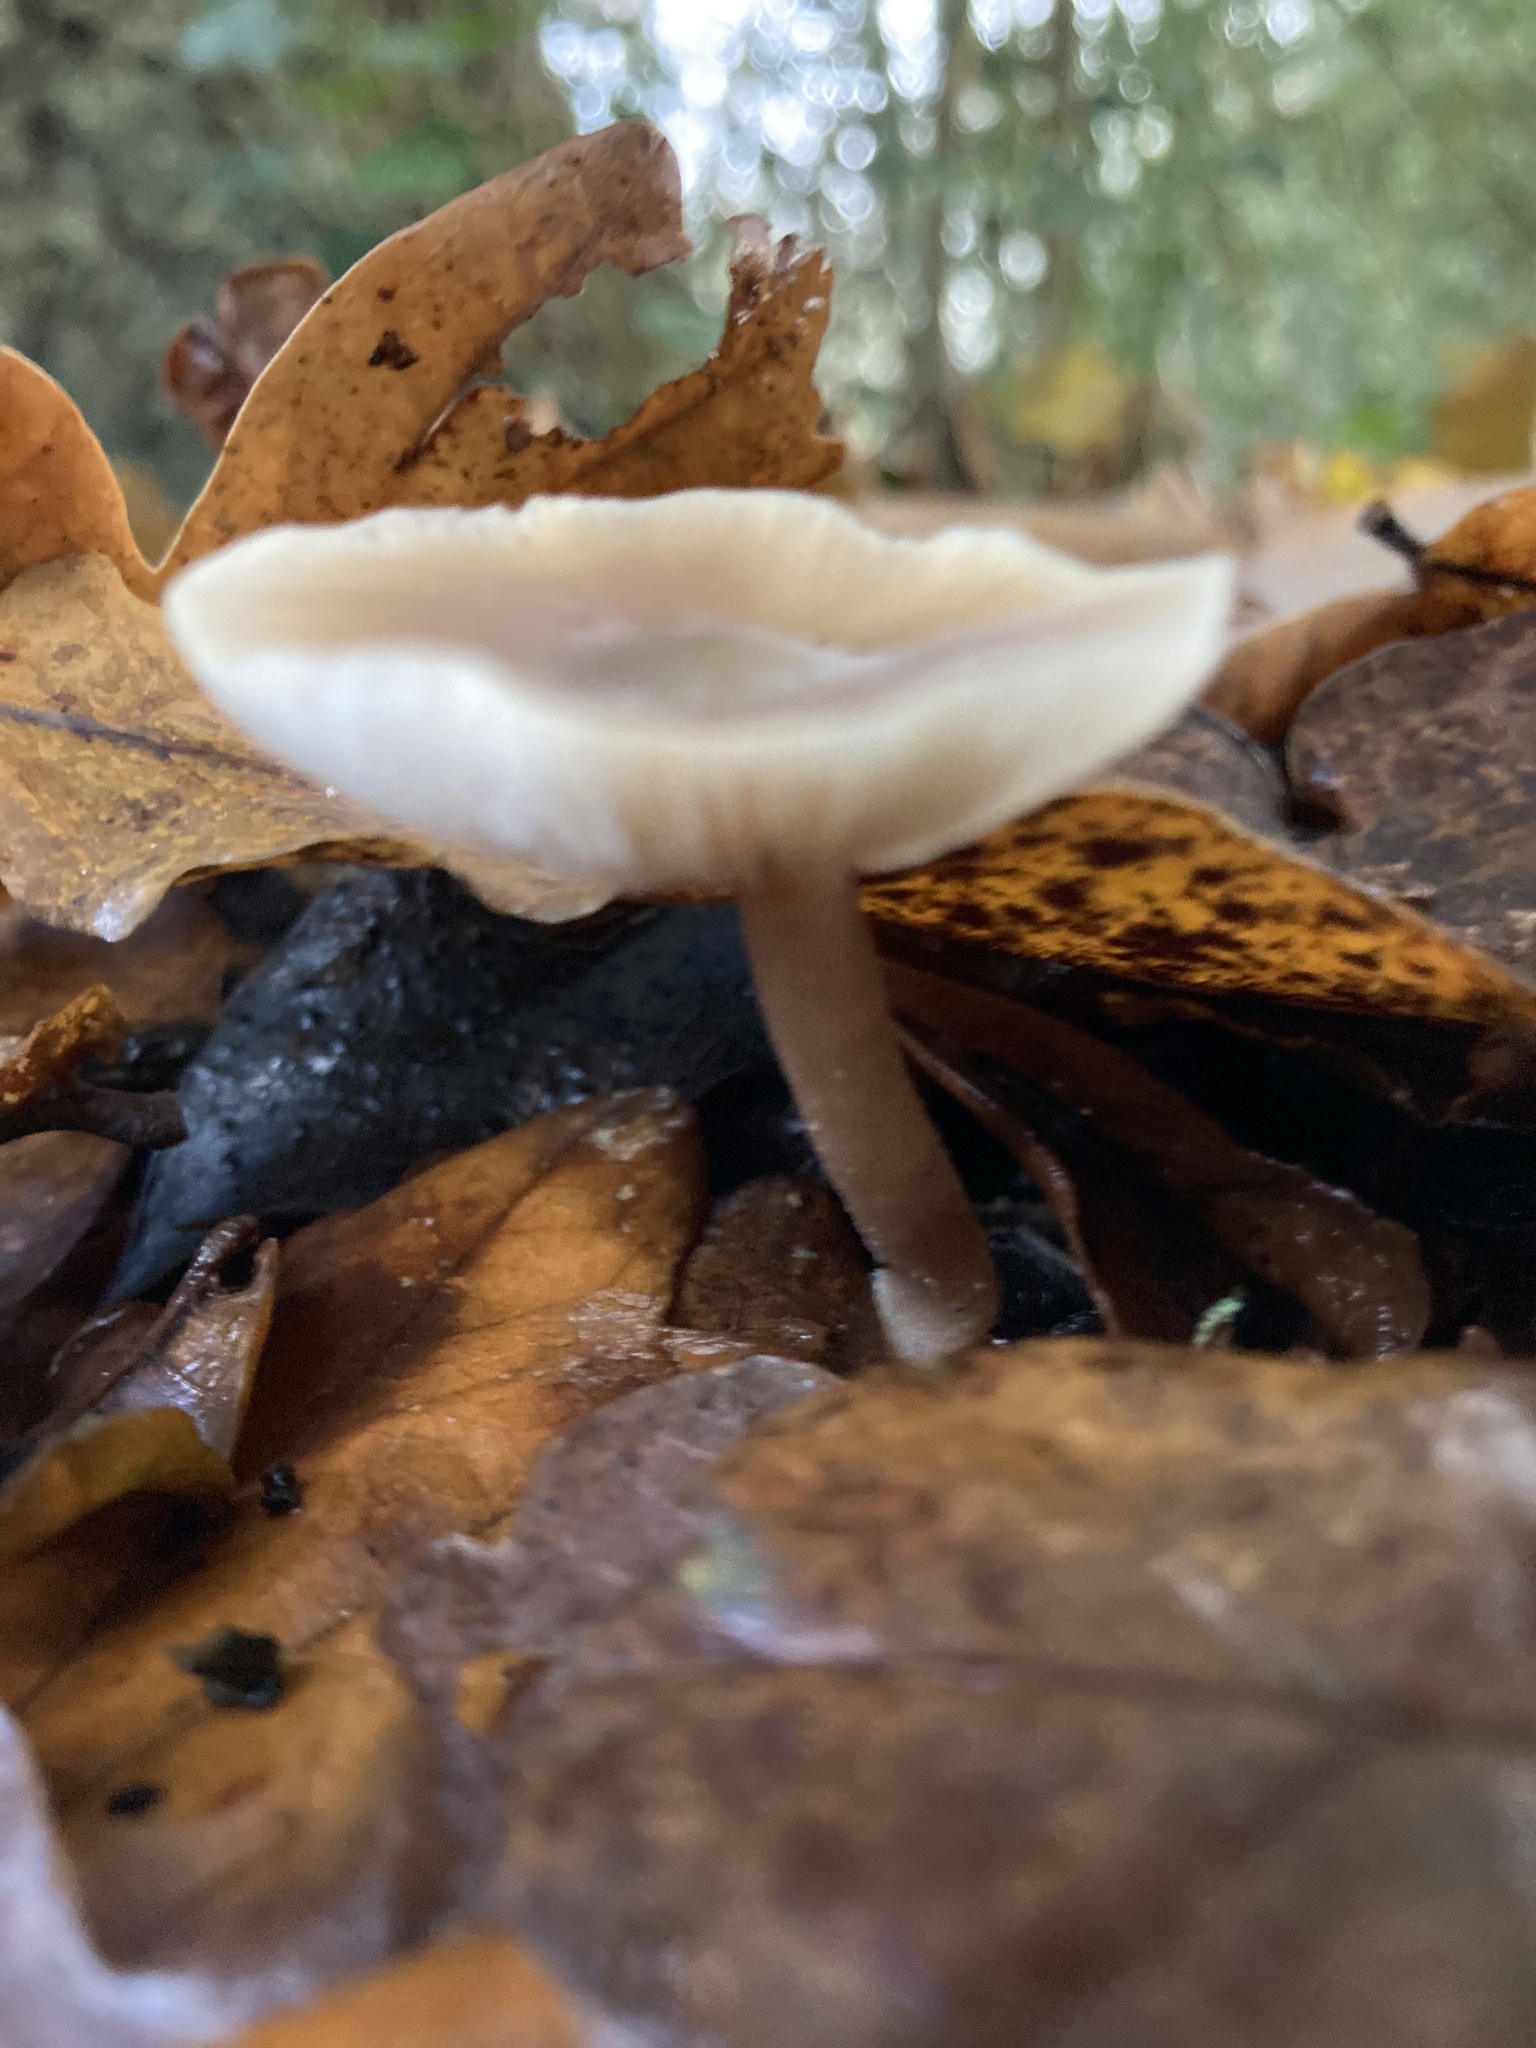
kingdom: Fungi
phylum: Basidiomycota
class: Agaricomycetes
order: Agaricales
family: Omphalotaceae
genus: Rhodocollybia
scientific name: Rhodocollybia butyracea
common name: Butter cap
